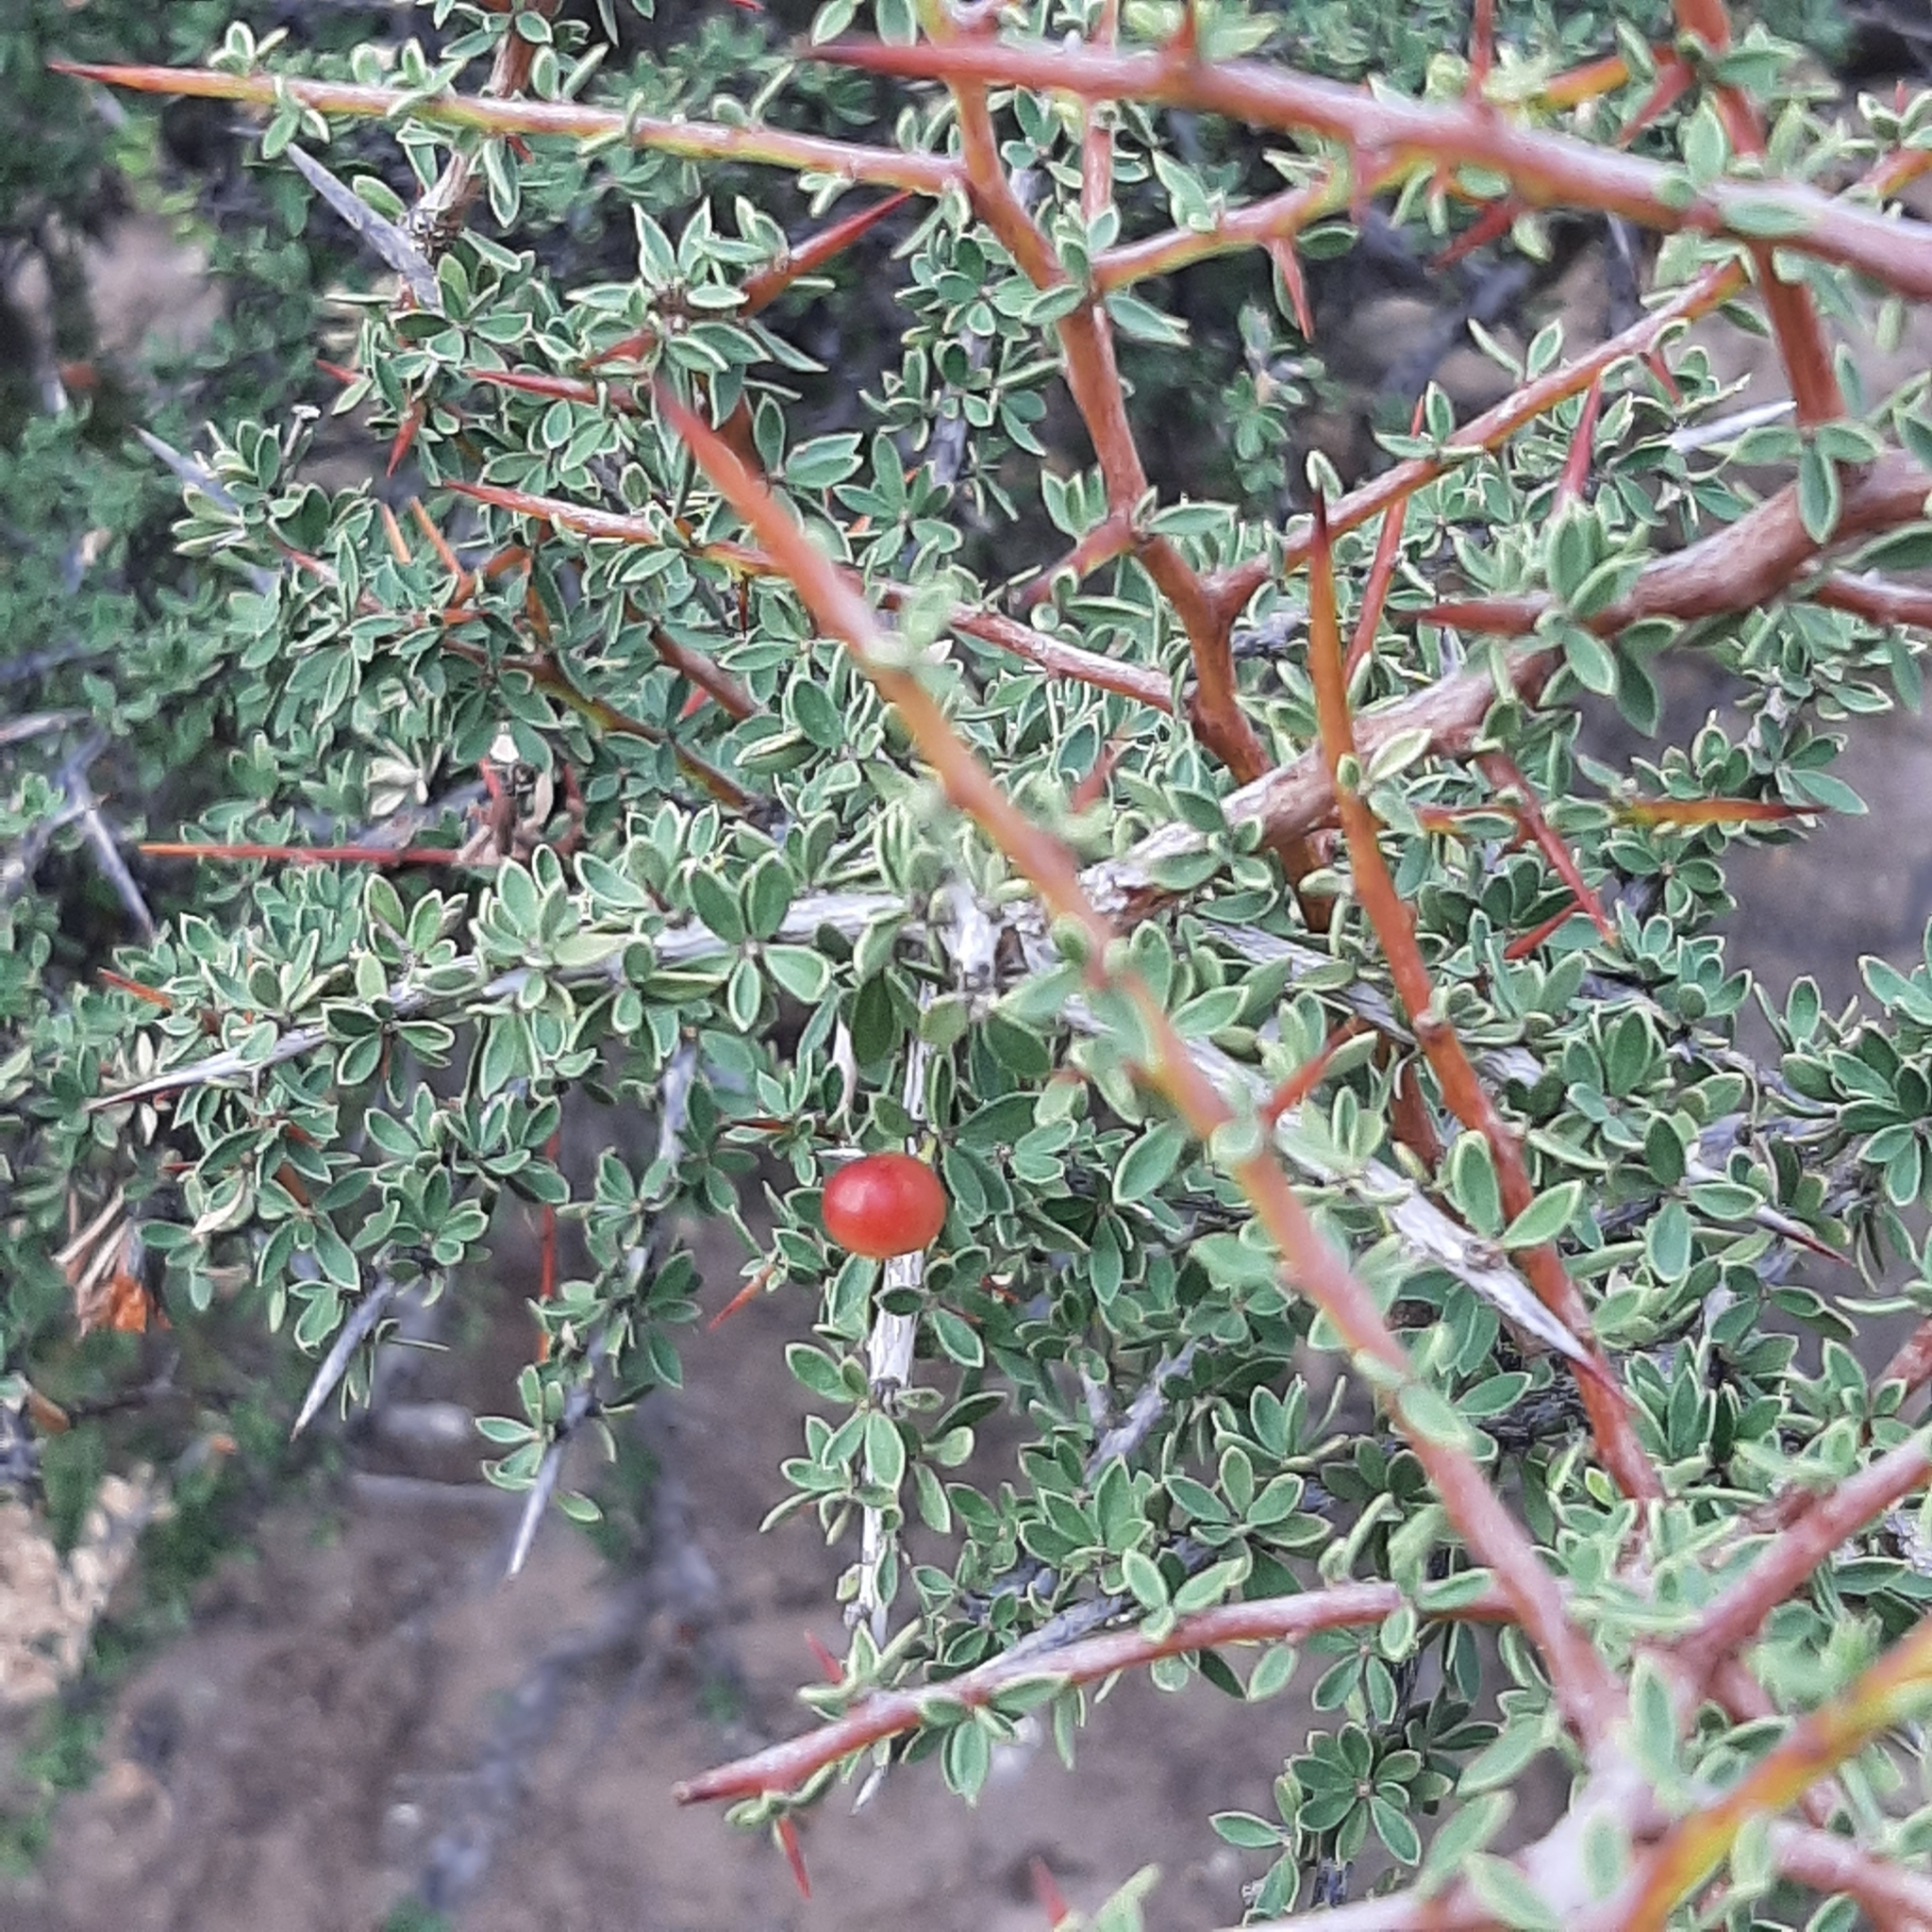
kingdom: Plantae
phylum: Tracheophyta
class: Magnoliopsida
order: Rosales
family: Rhamnaceae
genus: Condalia
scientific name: Condalia microphylla
